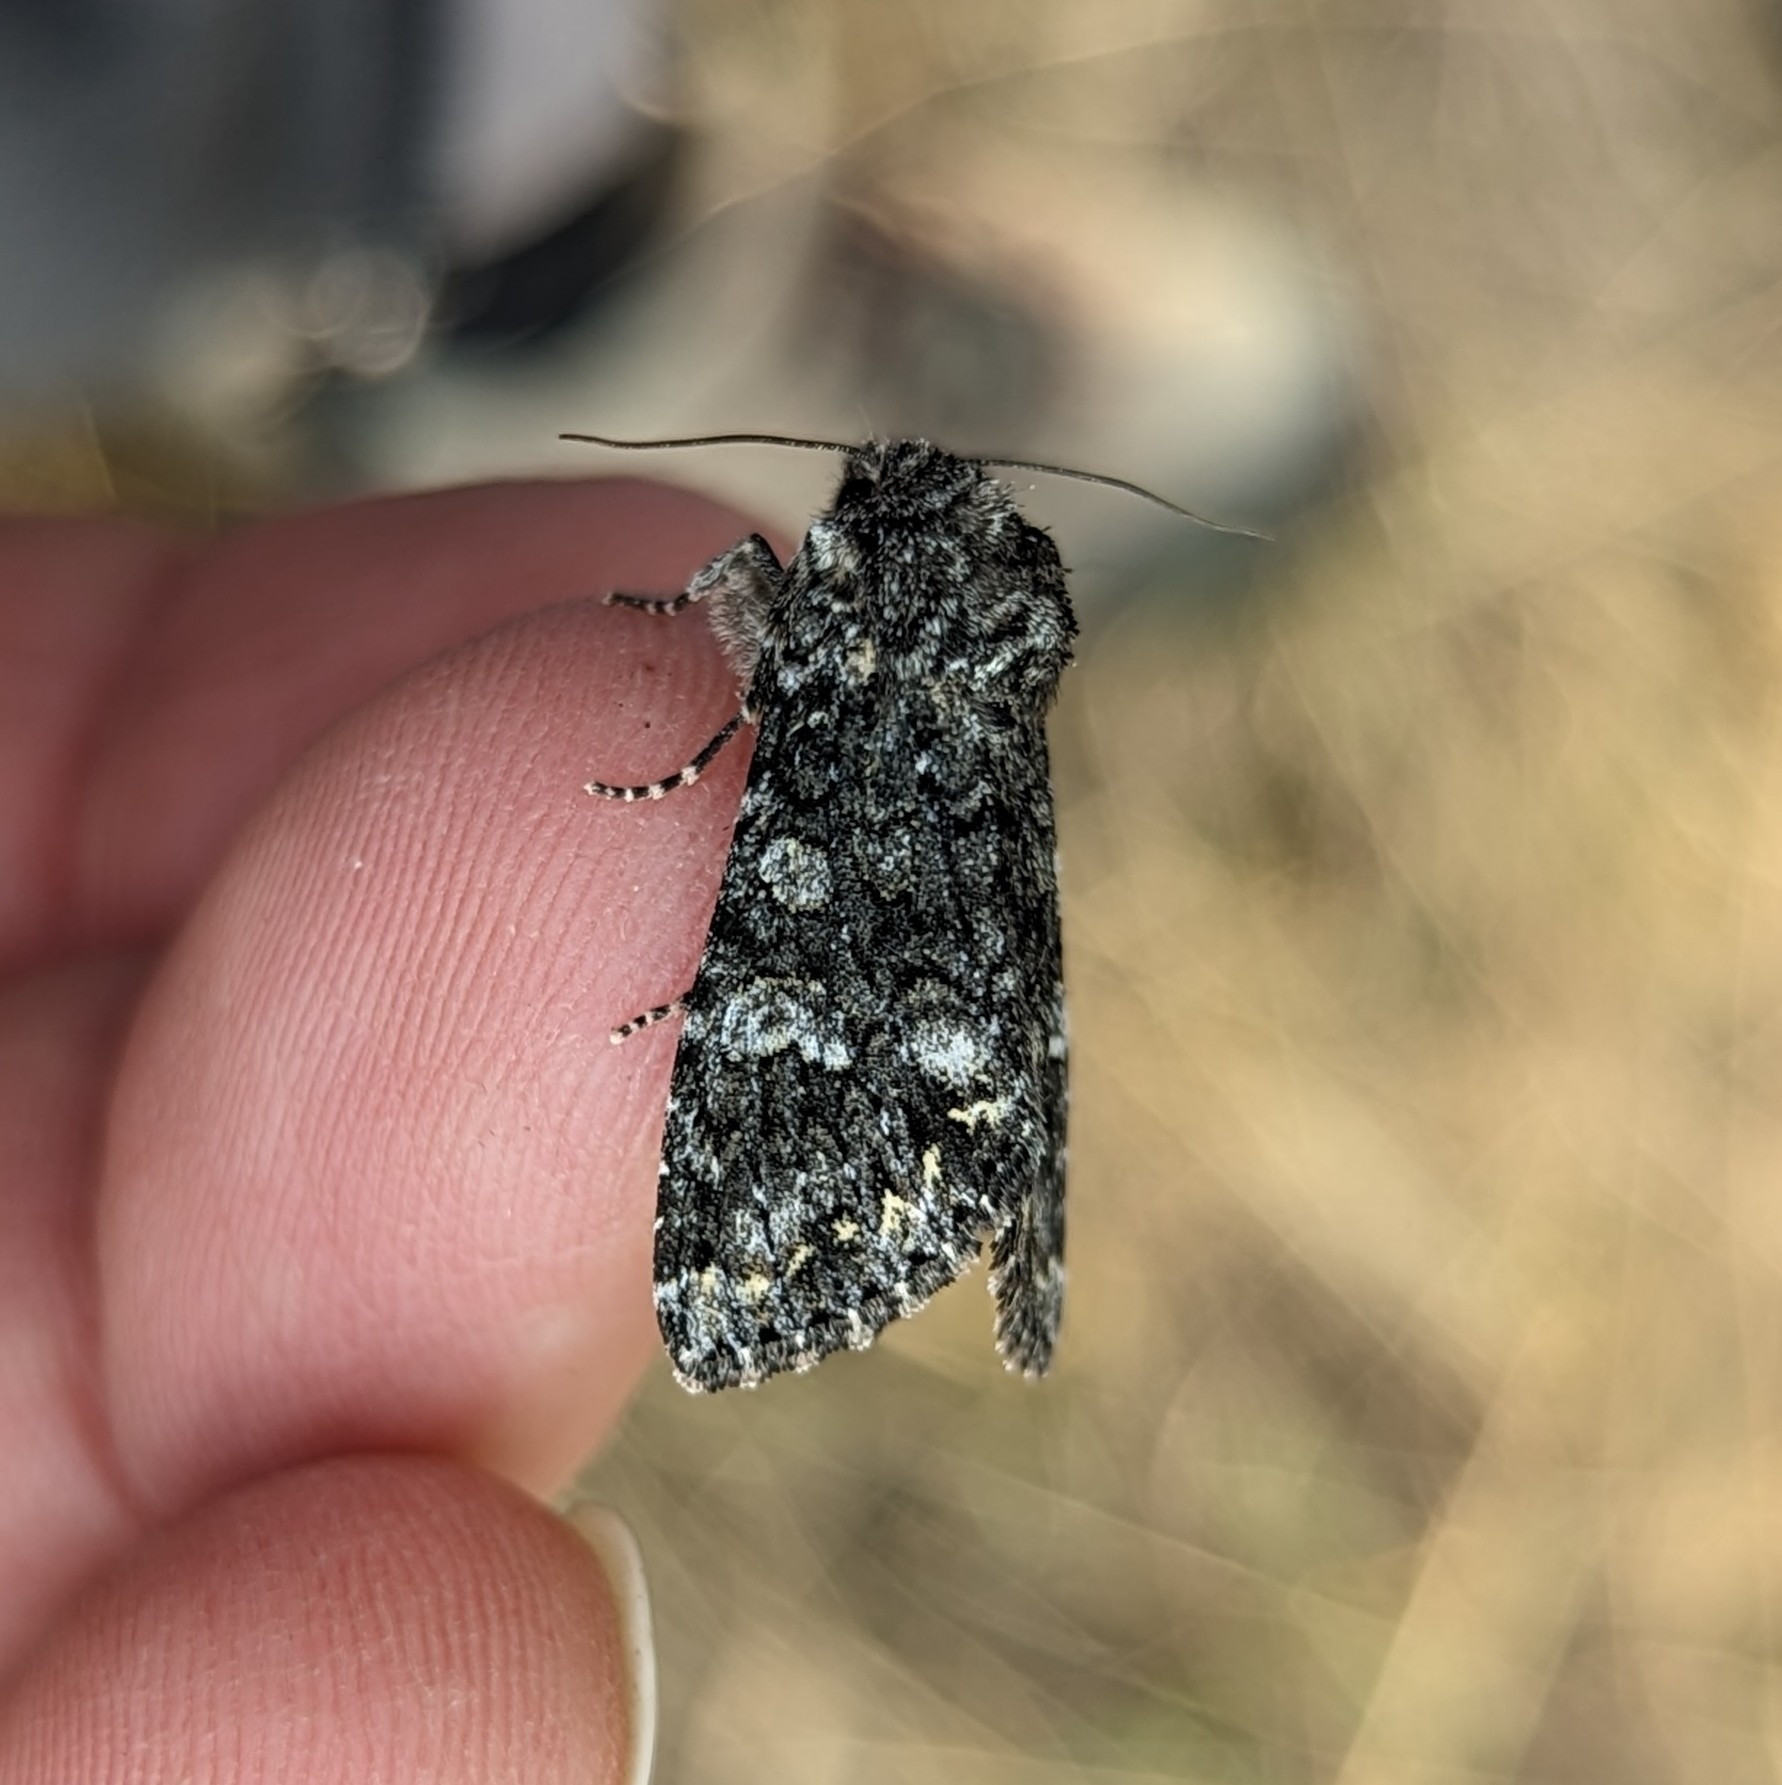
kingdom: Animalia
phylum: Arthropoda
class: Insecta
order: Lepidoptera
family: Noctuidae
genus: Papestra
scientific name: Papestra cristifera
